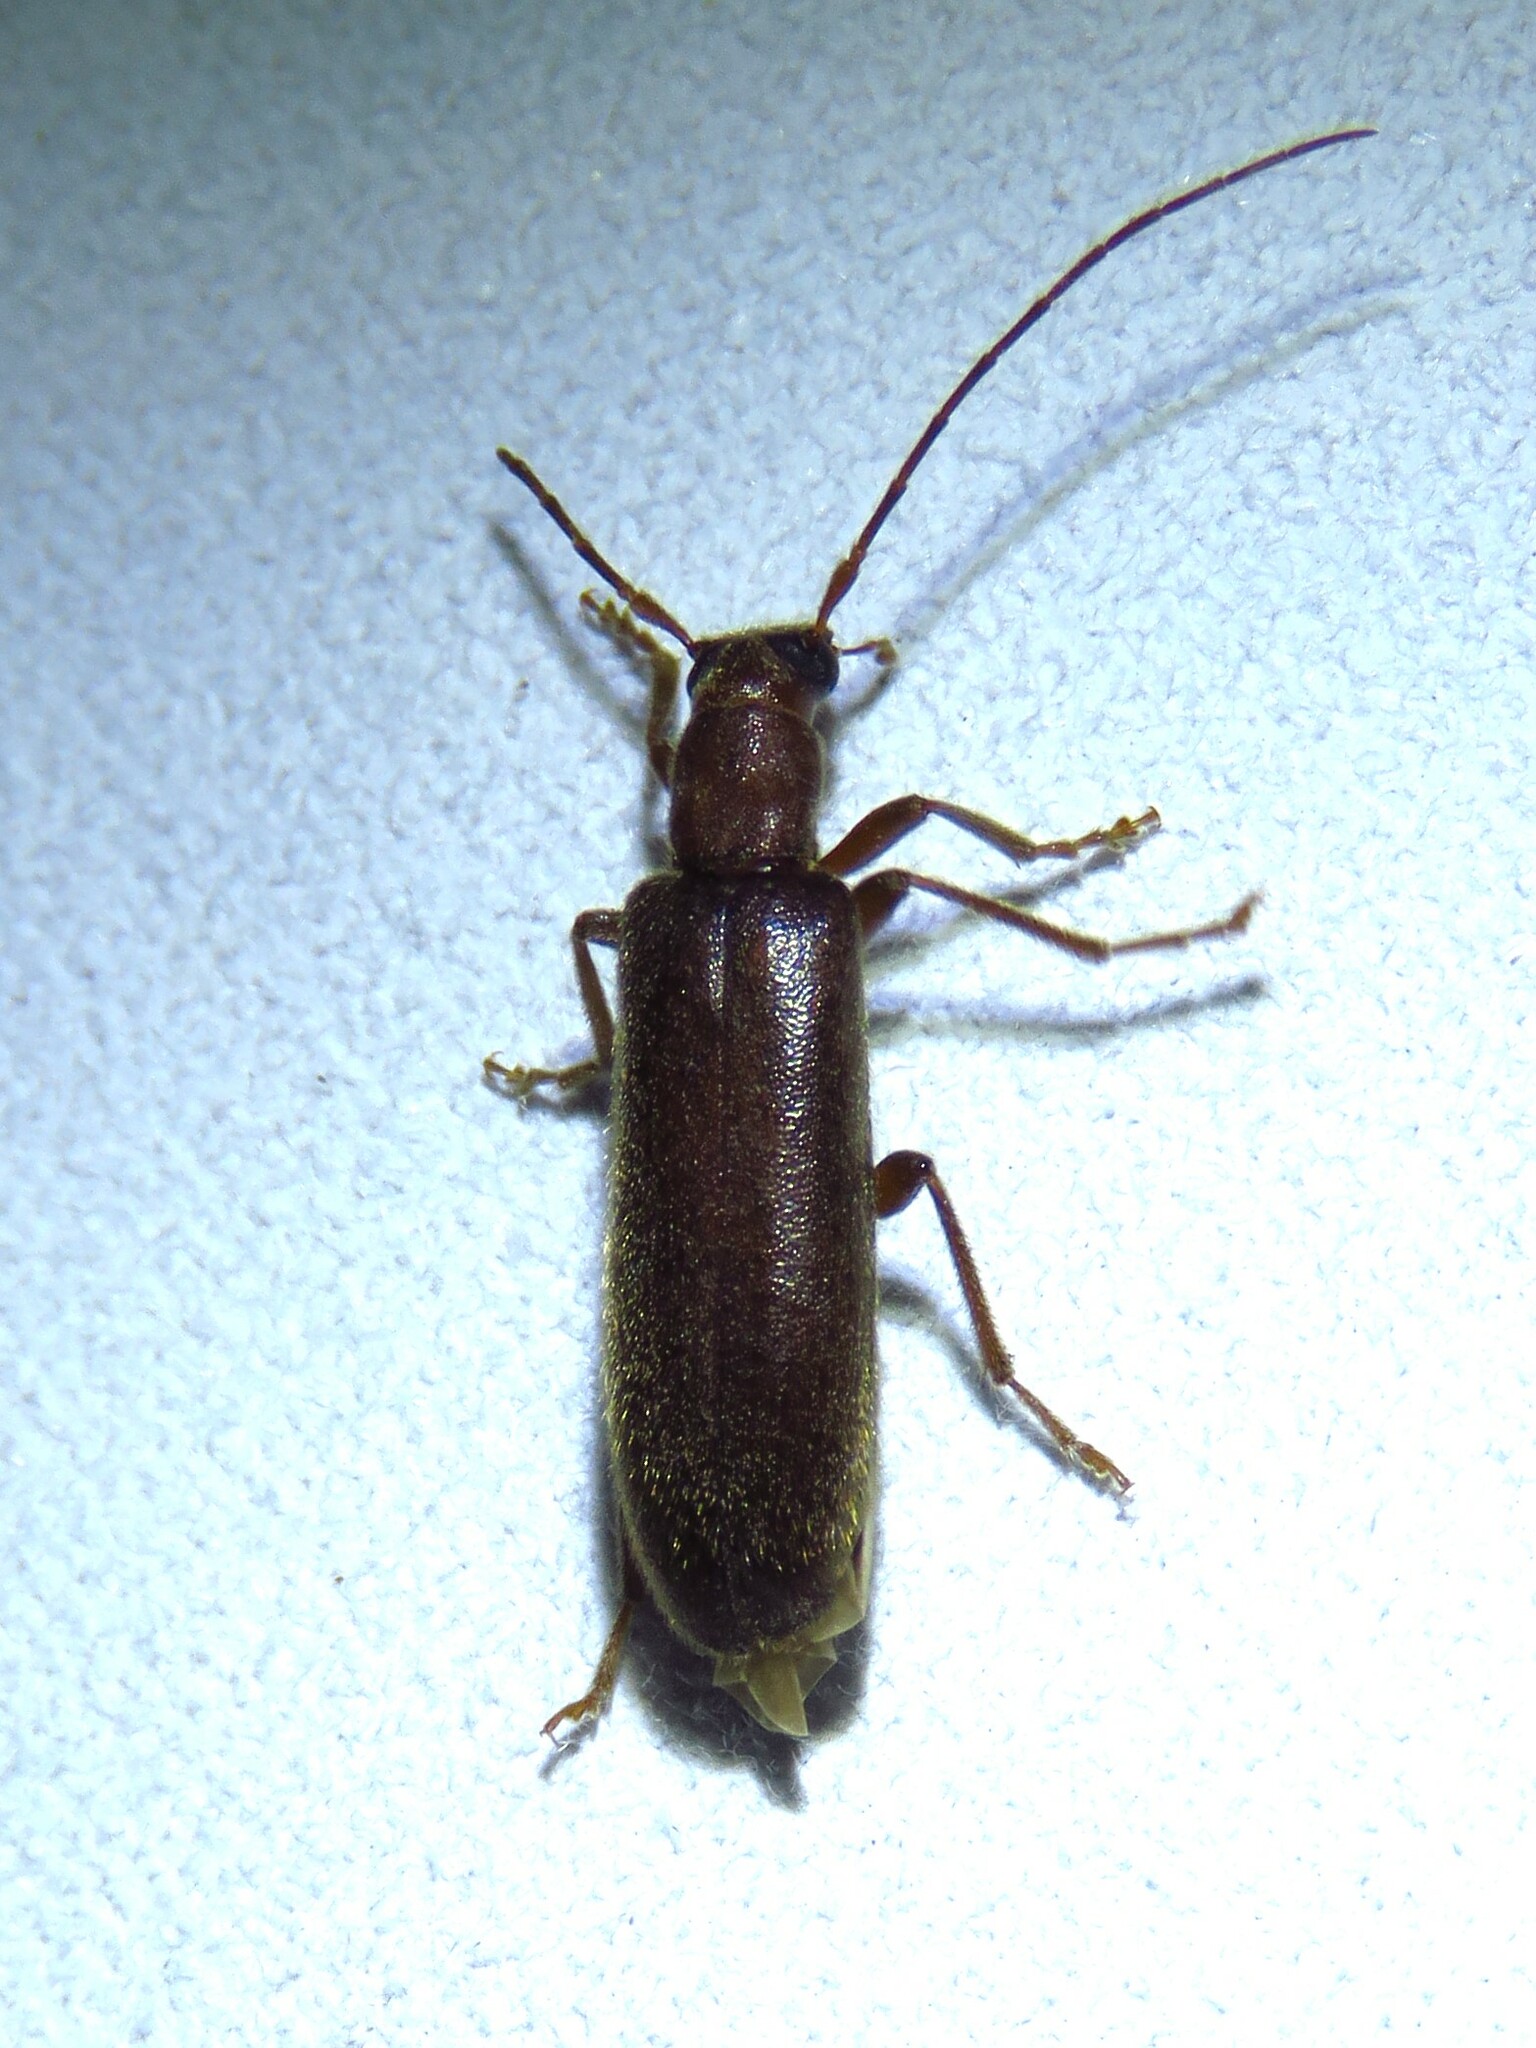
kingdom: Animalia
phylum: Arthropoda
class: Insecta
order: Coleoptera
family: Oedemeridae
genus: Sparedrus
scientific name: Sparedrus aspersus
